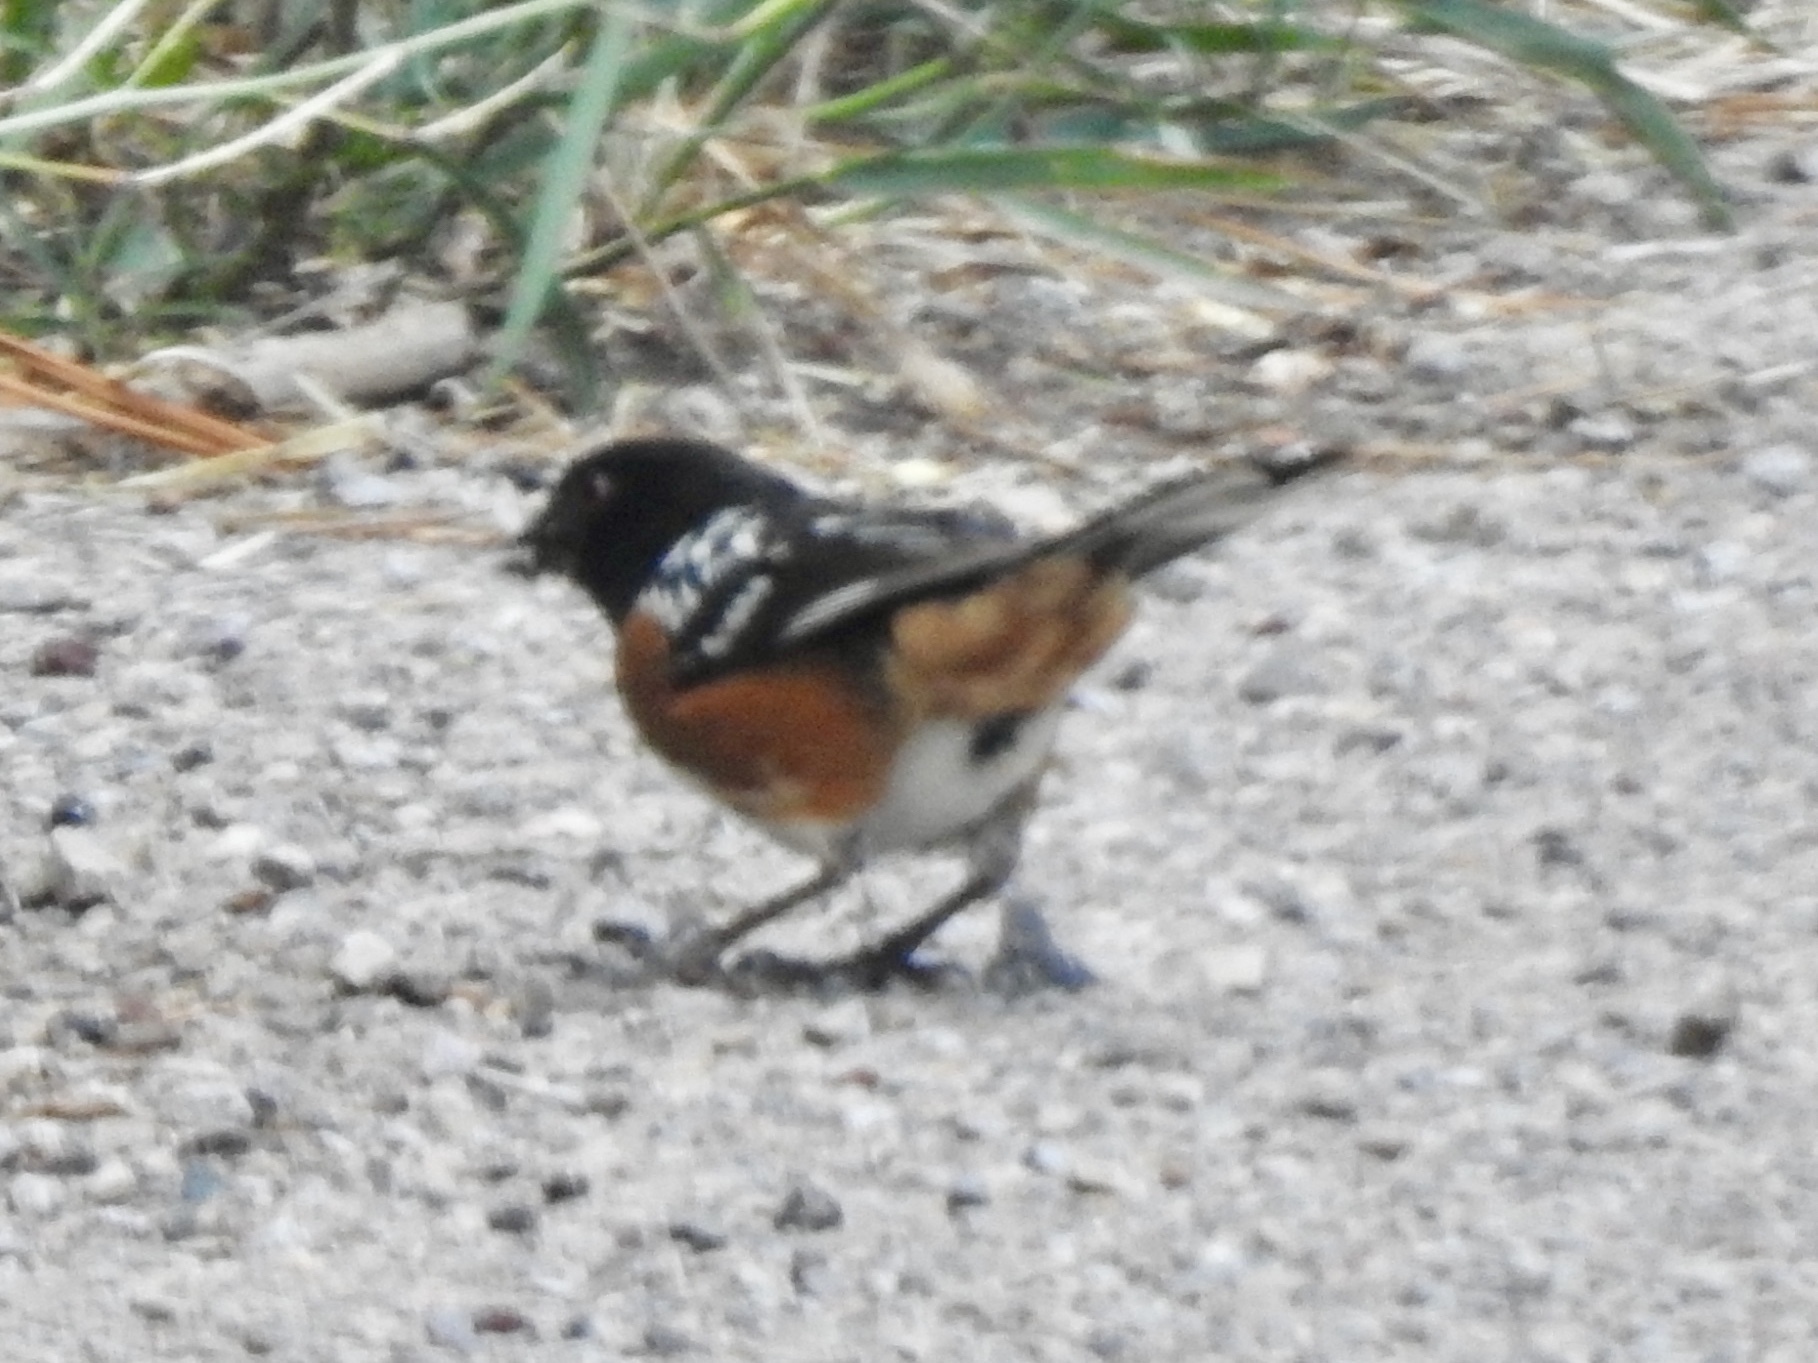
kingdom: Animalia
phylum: Chordata
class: Aves
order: Passeriformes
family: Passerellidae
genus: Pipilo
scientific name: Pipilo maculatus
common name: Spotted towhee
